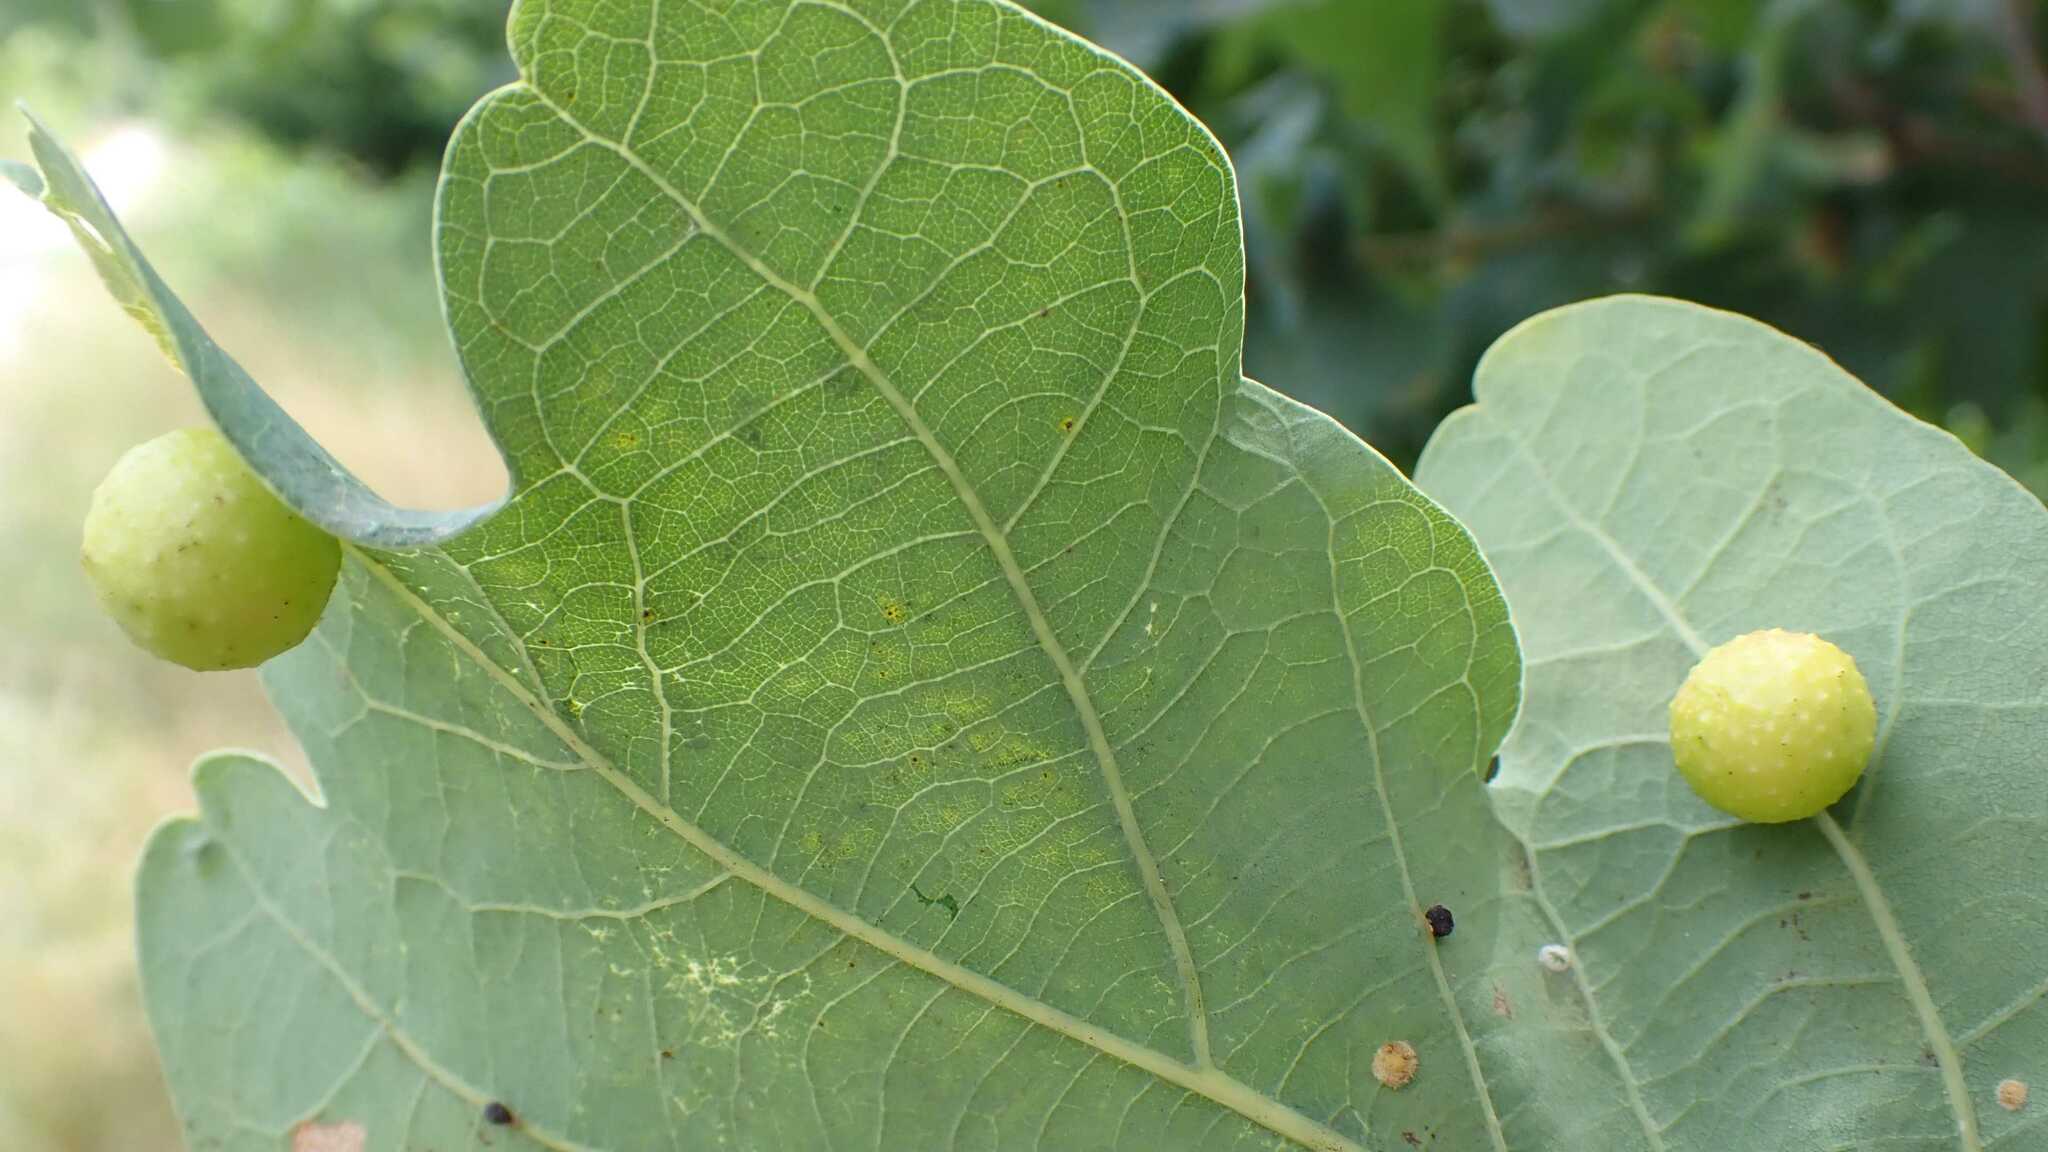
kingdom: Animalia
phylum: Arthropoda
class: Insecta
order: Hymenoptera
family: Cynipidae
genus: Cynips
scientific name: Cynips quercusfolii
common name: Cherry gall
